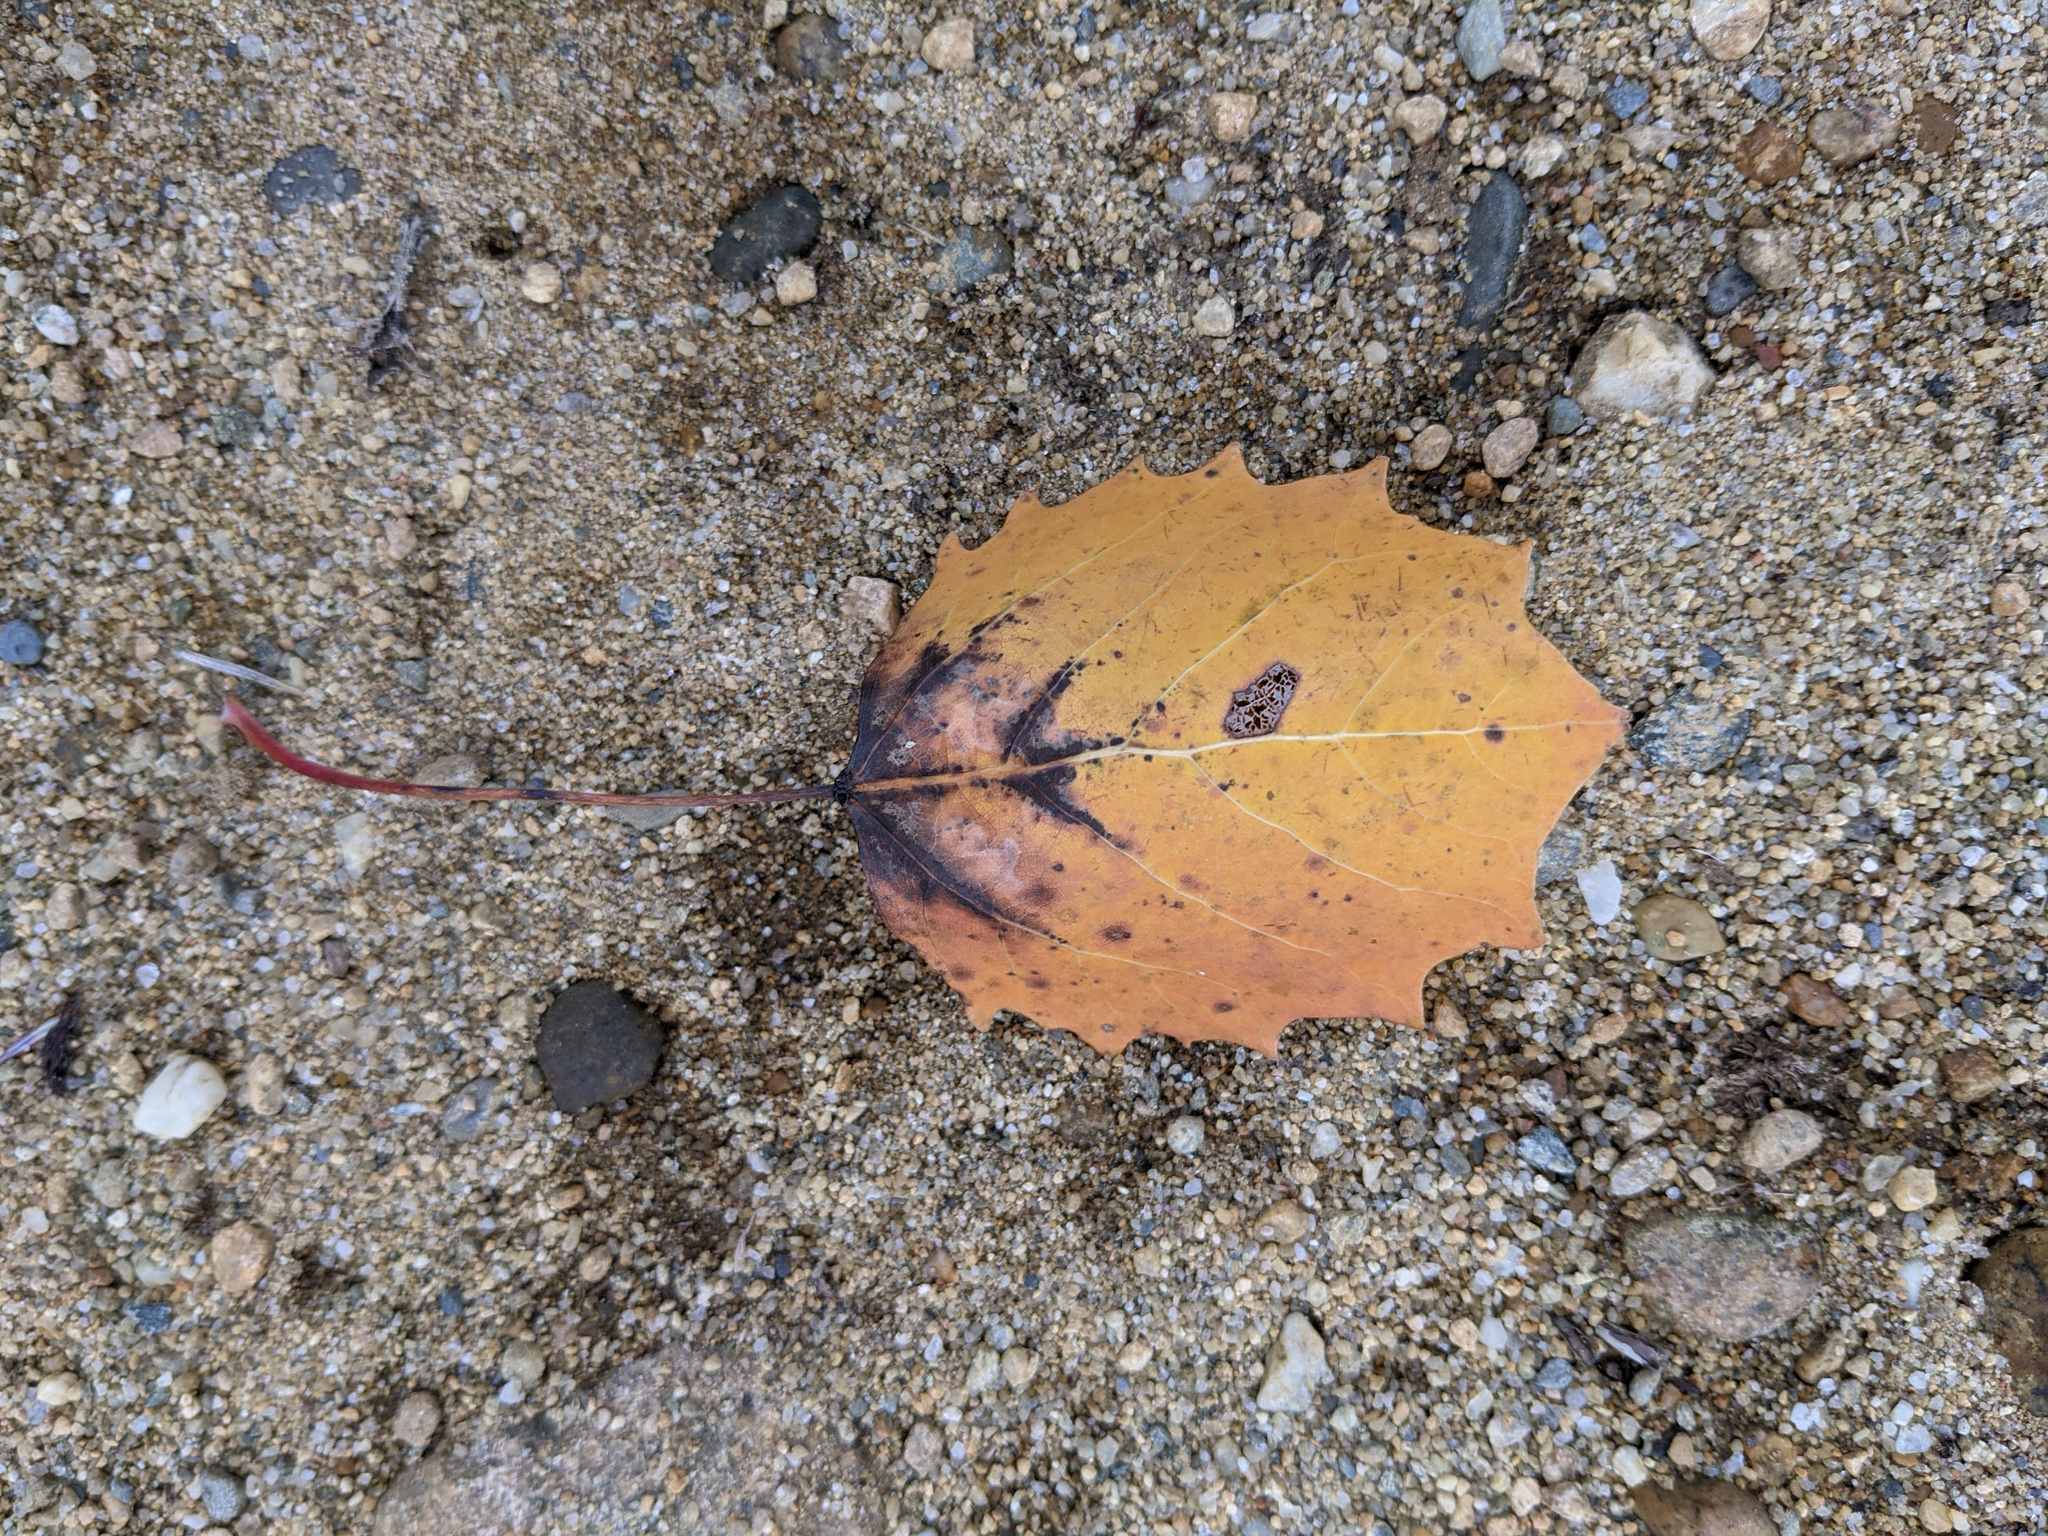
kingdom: Plantae
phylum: Tracheophyta
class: Magnoliopsida
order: Malpighiales
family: Salicaceae
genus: Populus
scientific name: Populus grandidentata
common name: Bigtooth aspen
